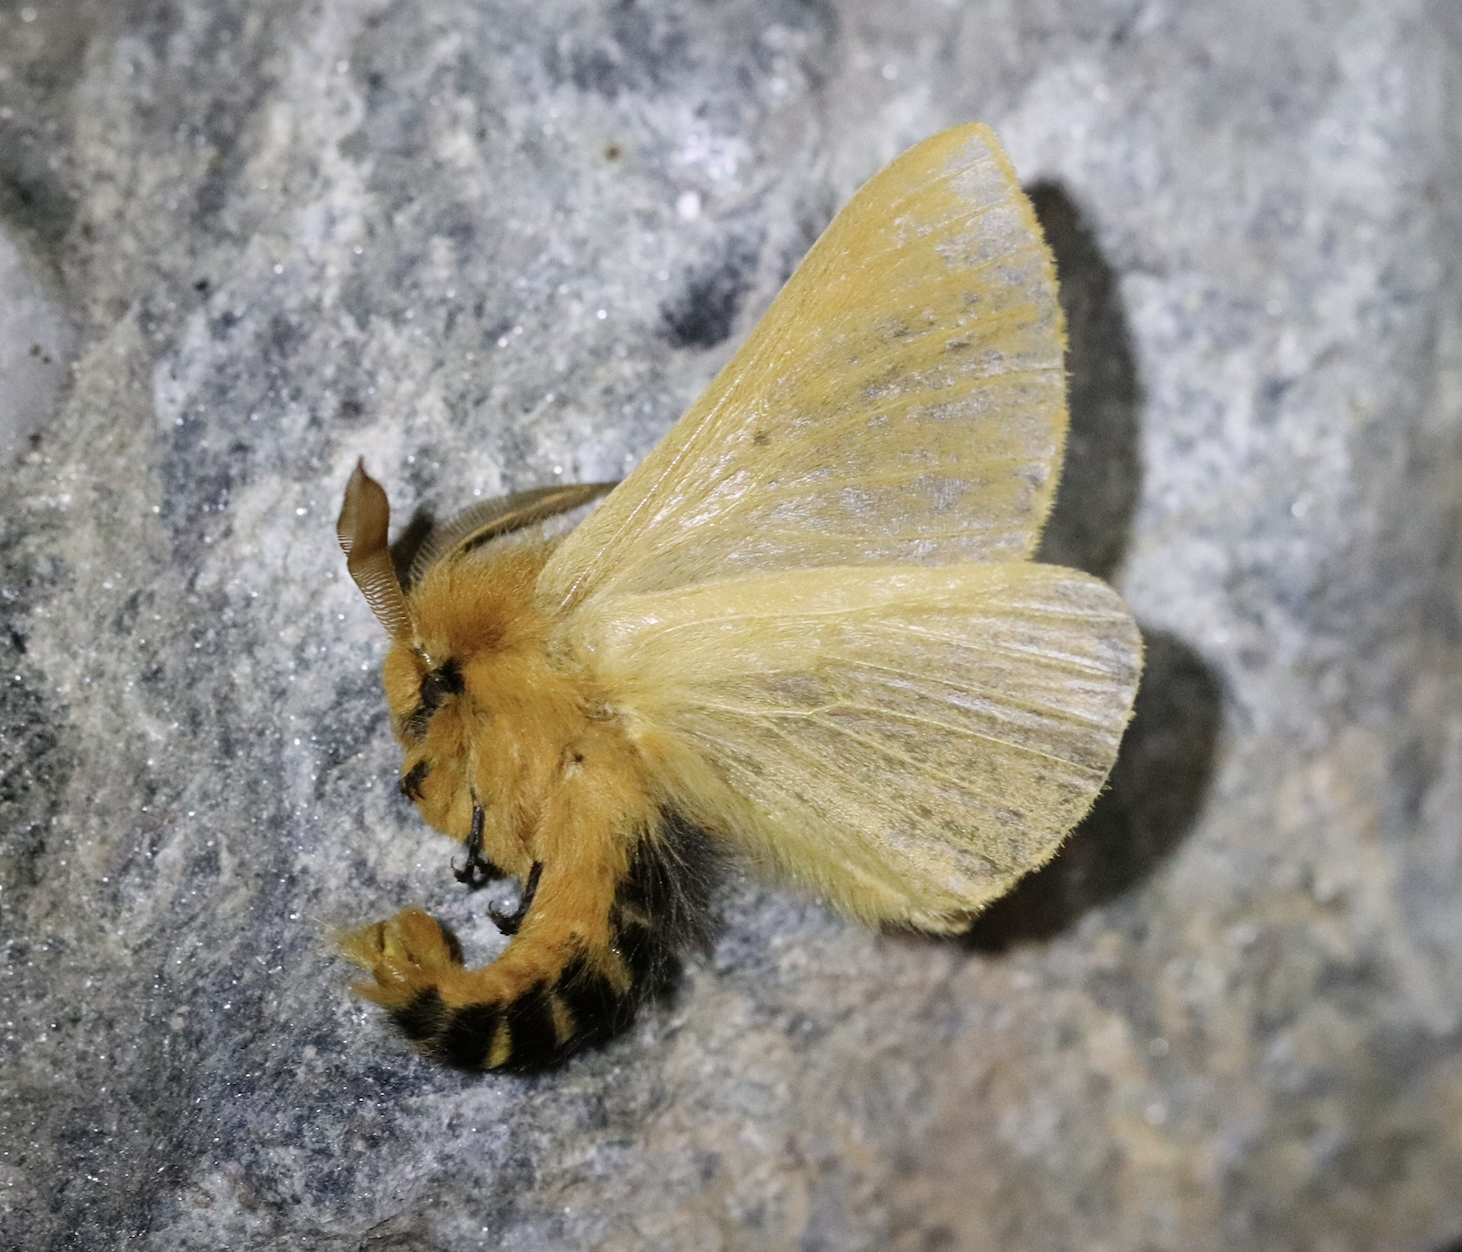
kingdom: Animalia
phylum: Arthropoda
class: Insecta
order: Lepidoptera
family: Brahmaeidae
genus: Lemonia
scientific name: Lemonia taraxaci
